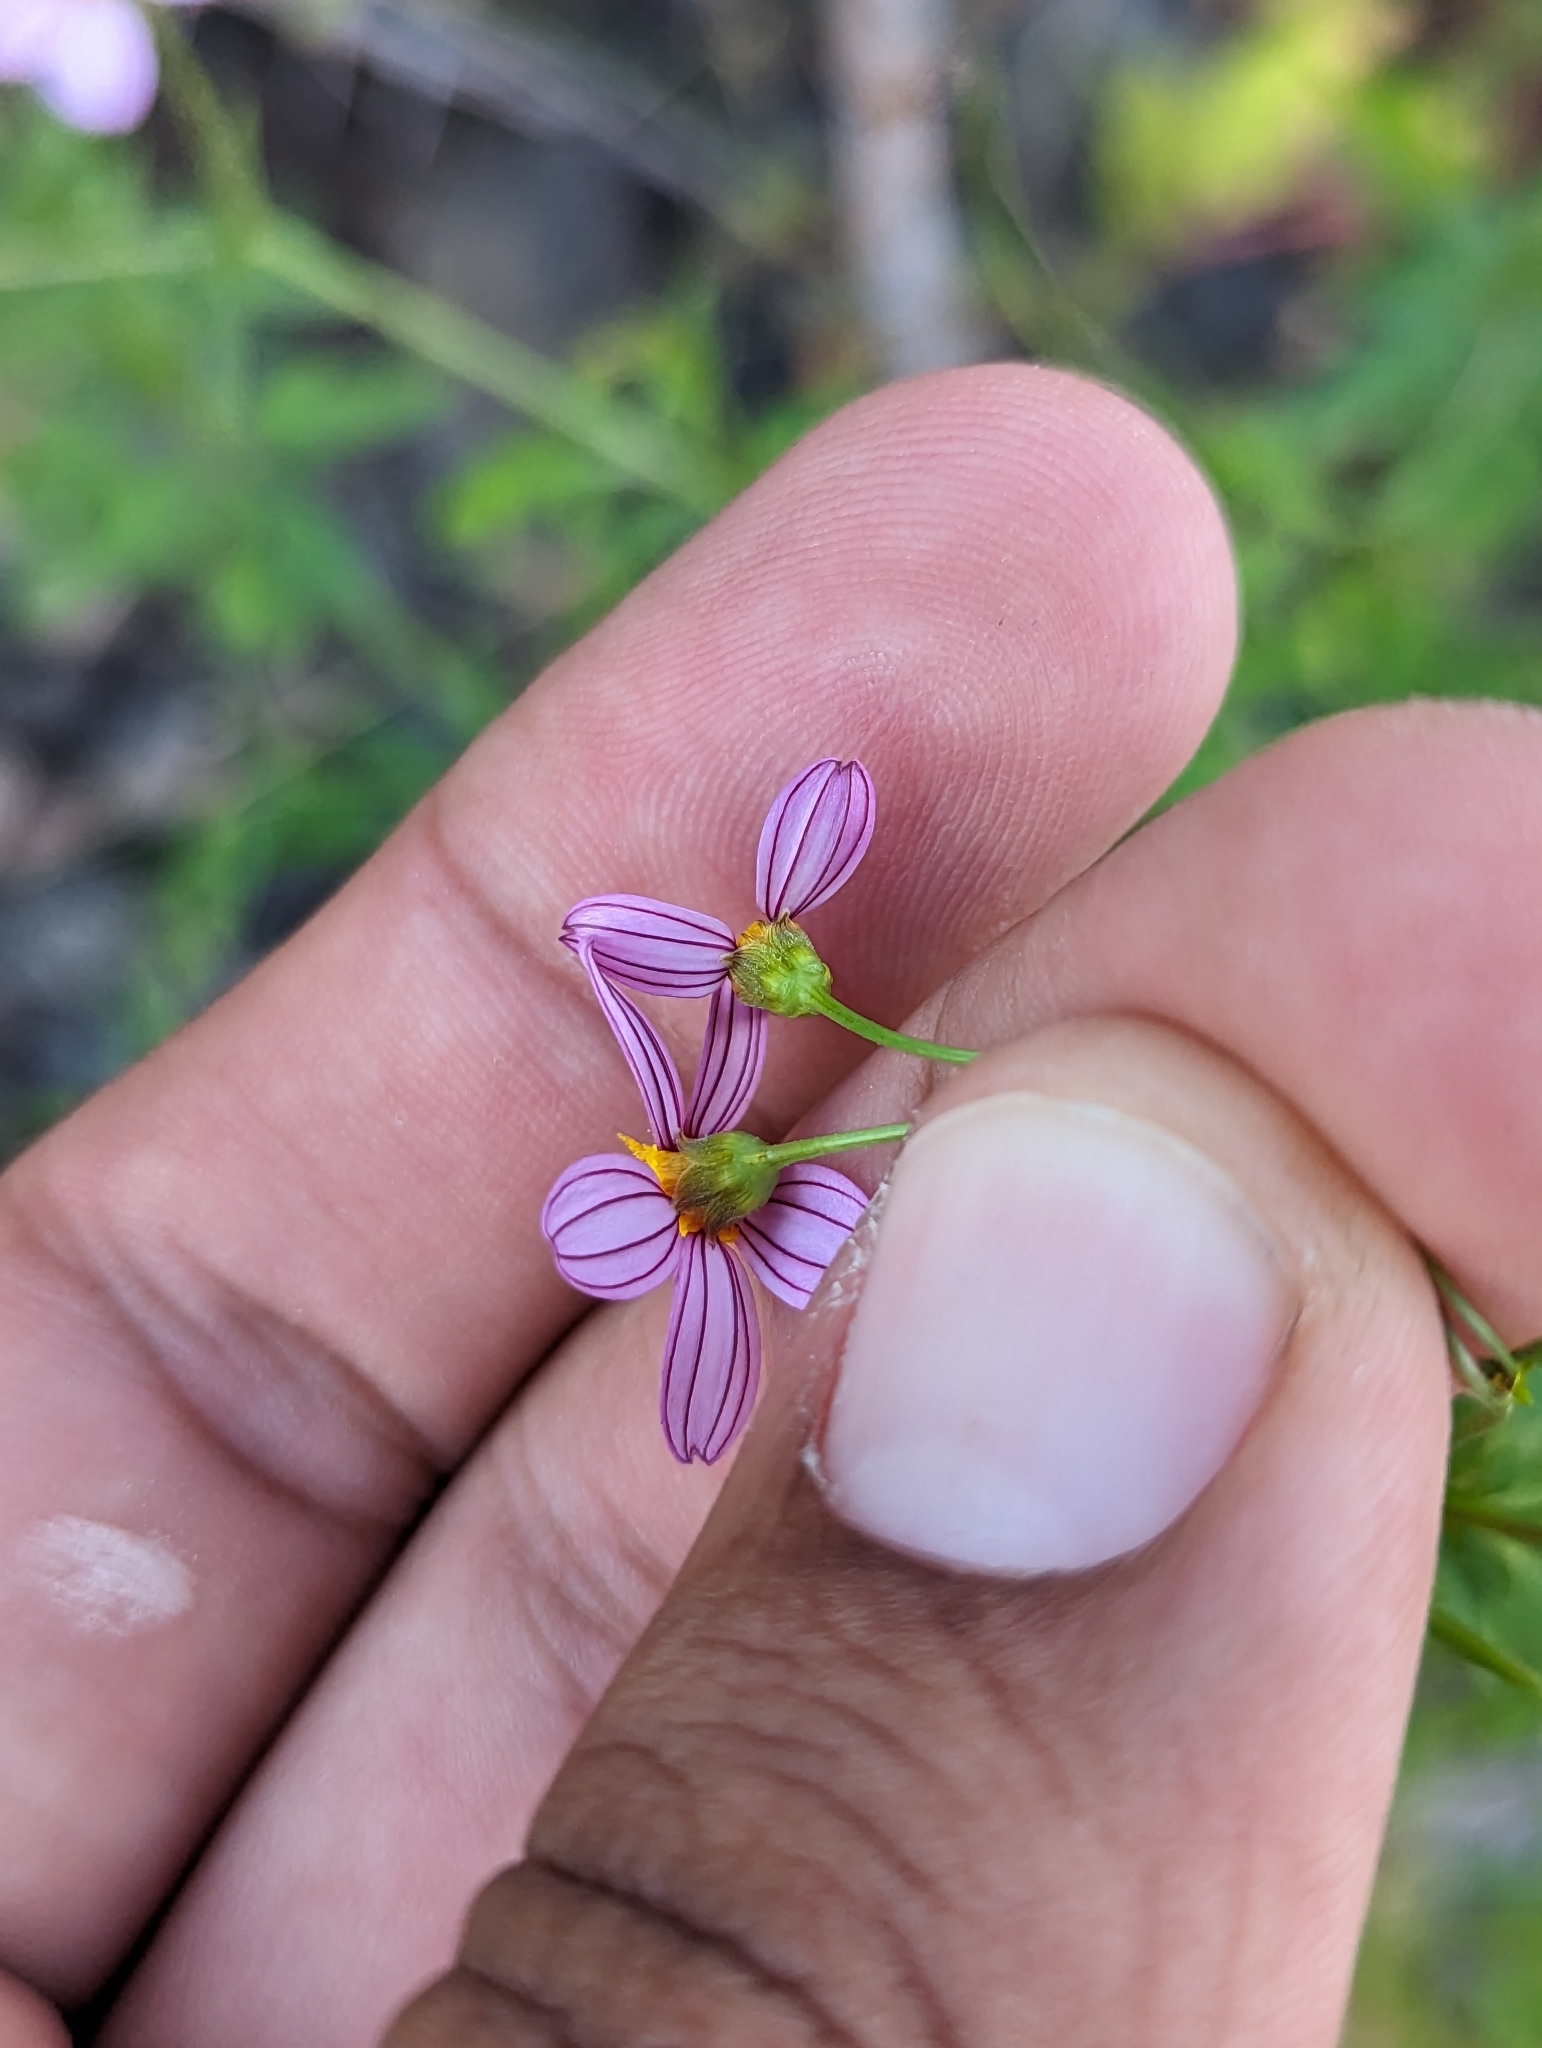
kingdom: Plantae
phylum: Tracheophyta
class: Magnoliopsida
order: Asterales
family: Asteraceae
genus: Coreocarpus
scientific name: Coreocarpus parthenioides
